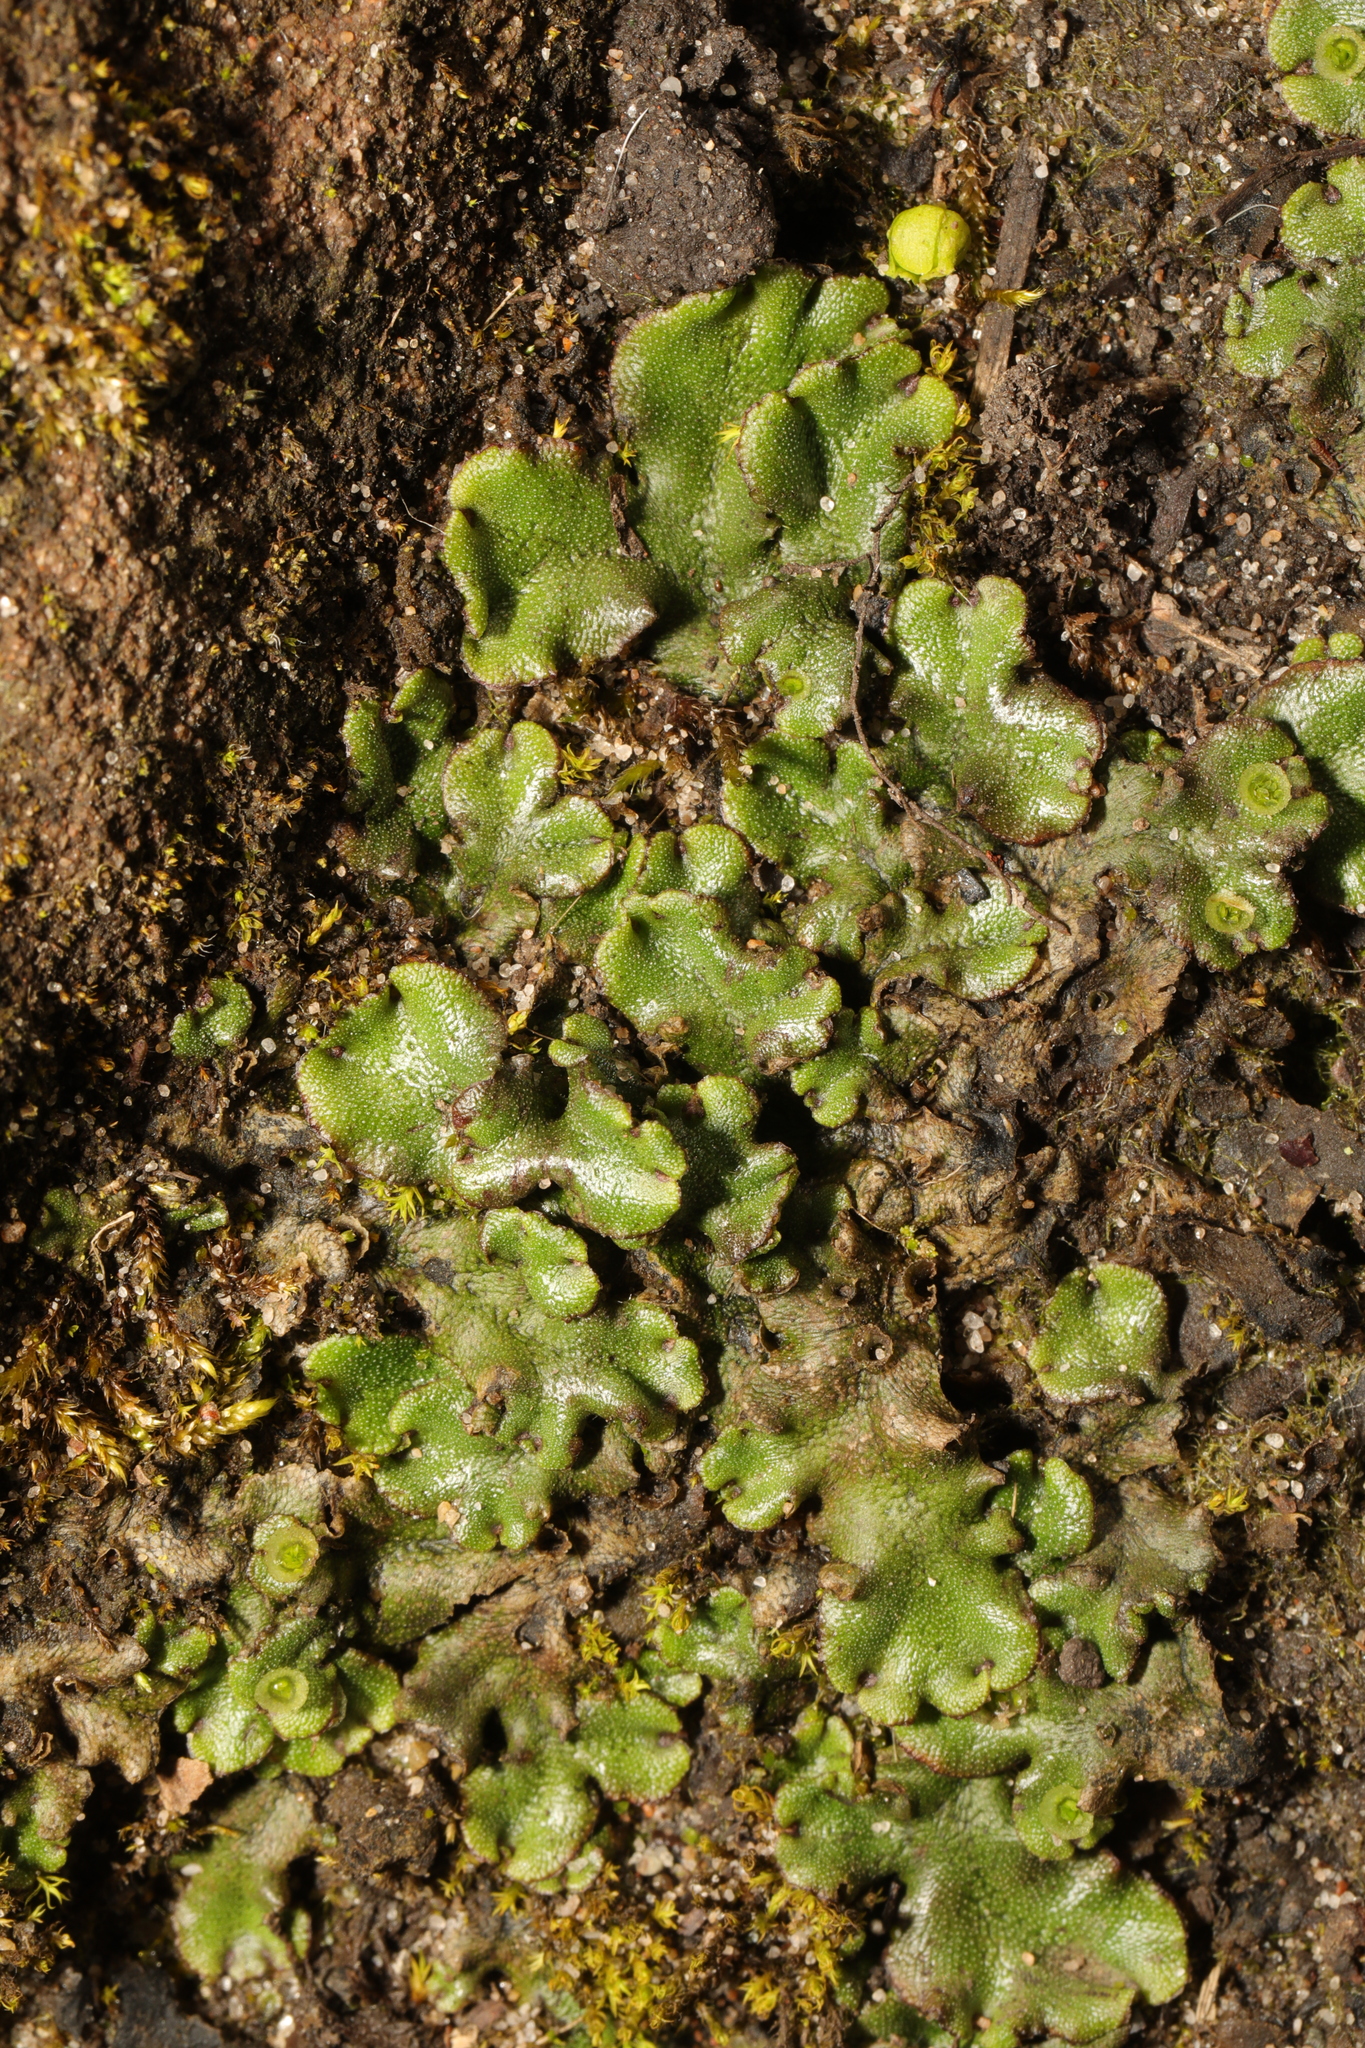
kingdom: Plantae
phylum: Marchantiophyta
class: Marchantiopsida
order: Marchantiales
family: Marchantiaceae
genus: Marchantia
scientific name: Marchantia polymorpha
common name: Common liverwort
